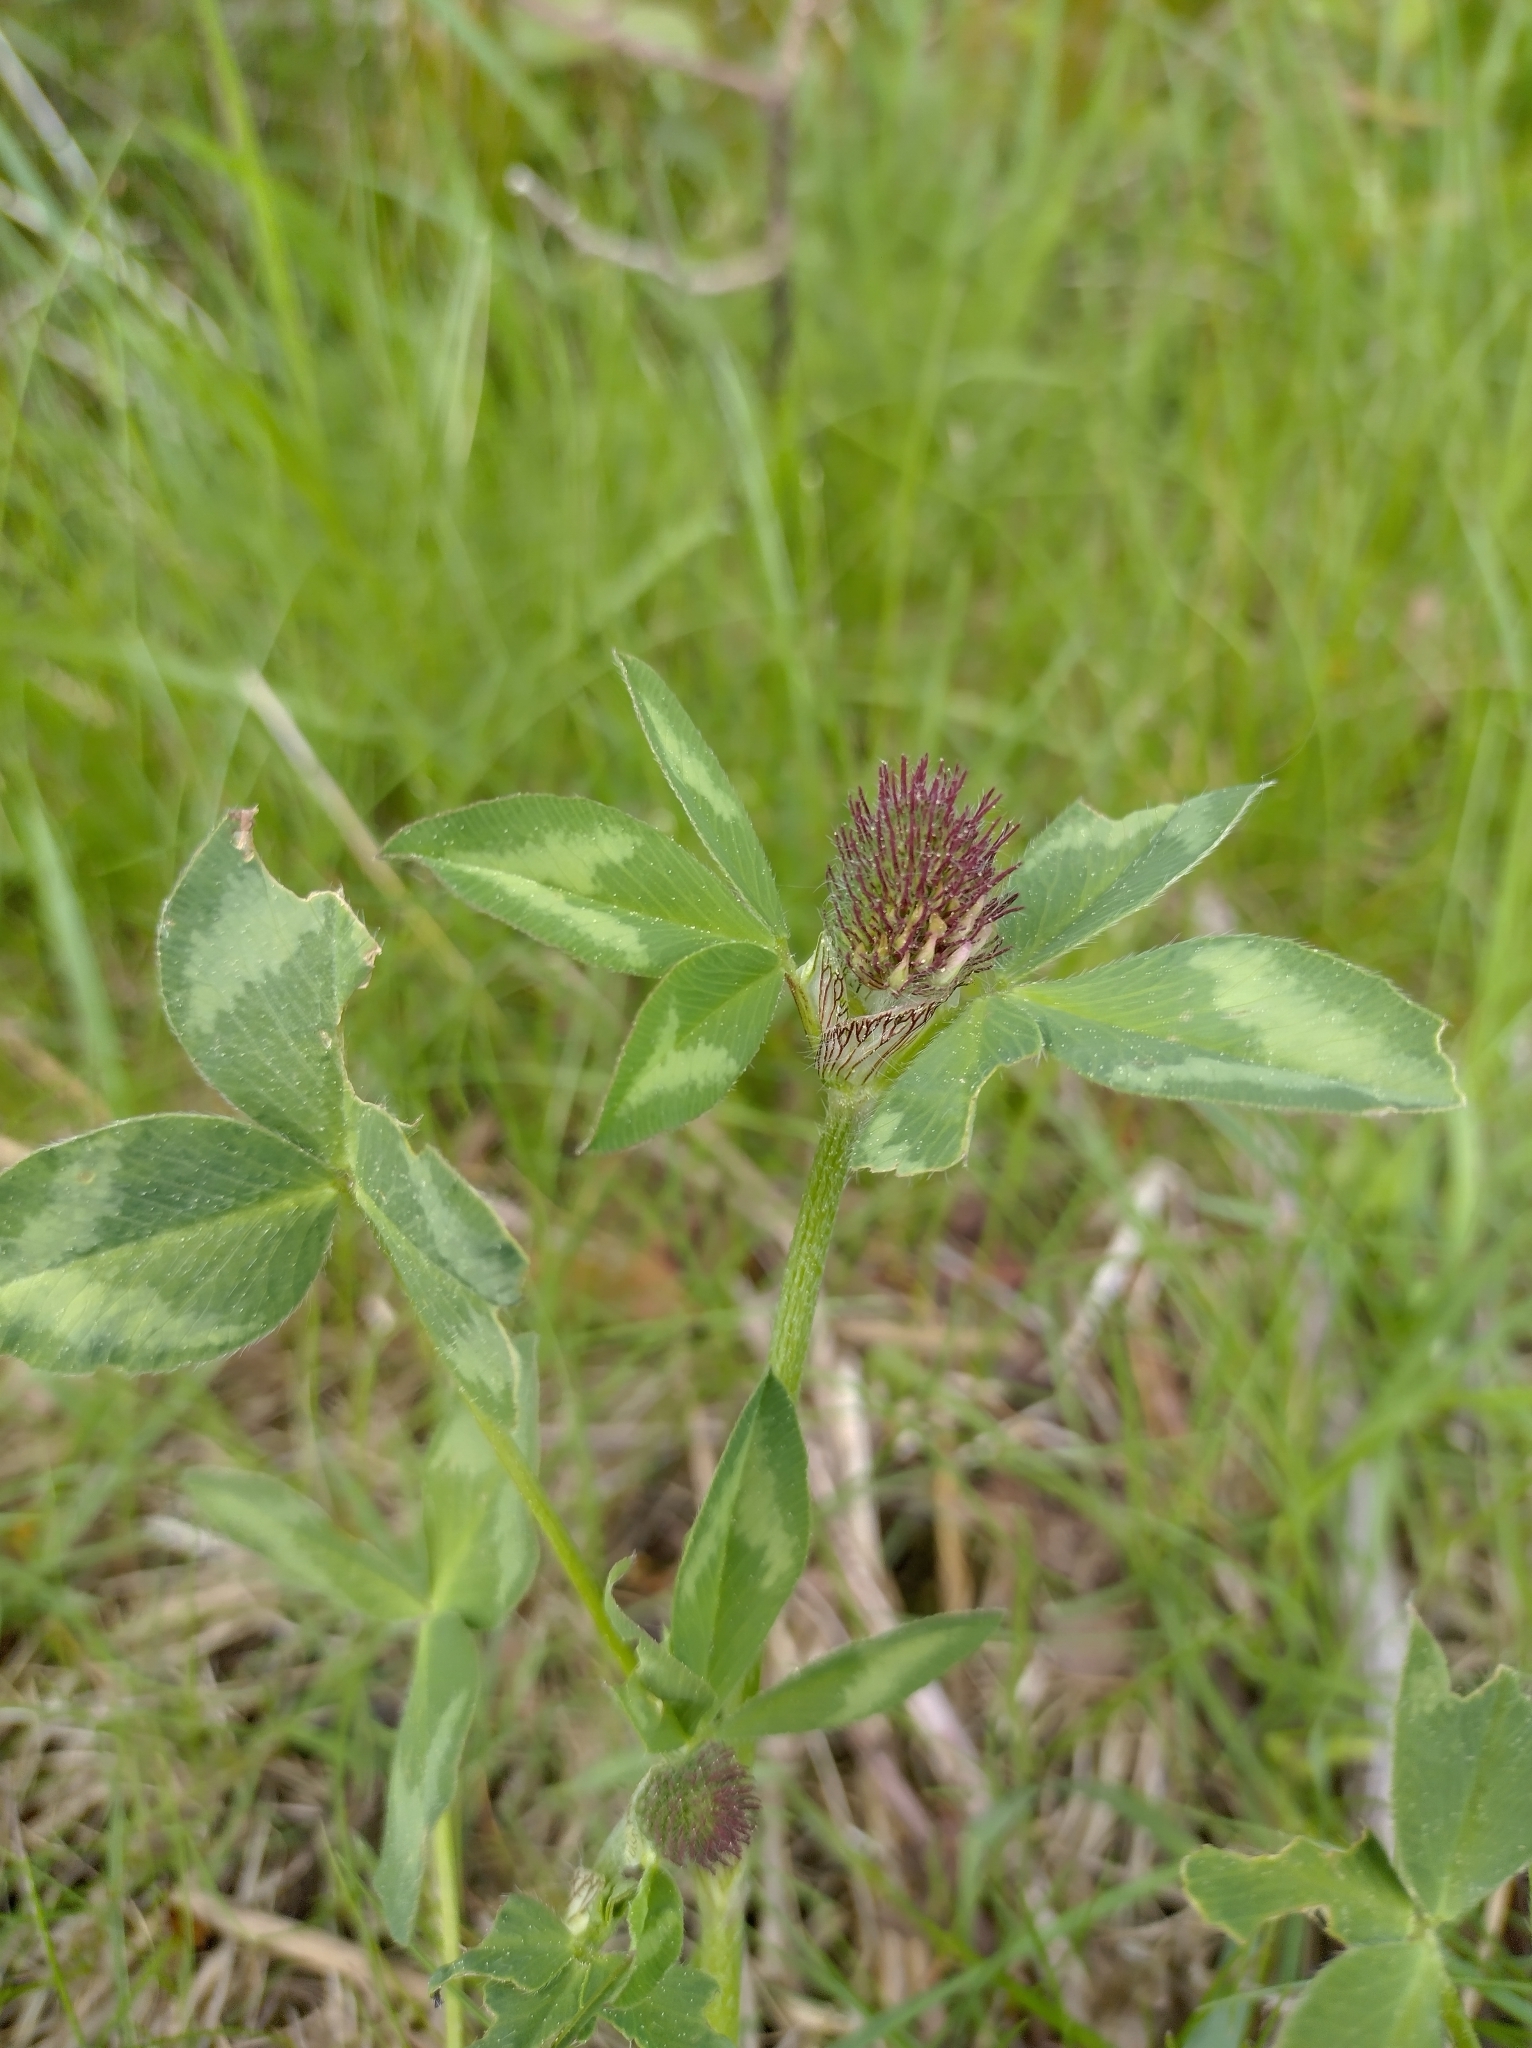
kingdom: Plantae
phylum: Tracheophyta
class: Magnoliopsida
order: Fabales
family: Fabaceae
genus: Trifolium
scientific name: Trifolium pratense
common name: Red clover
